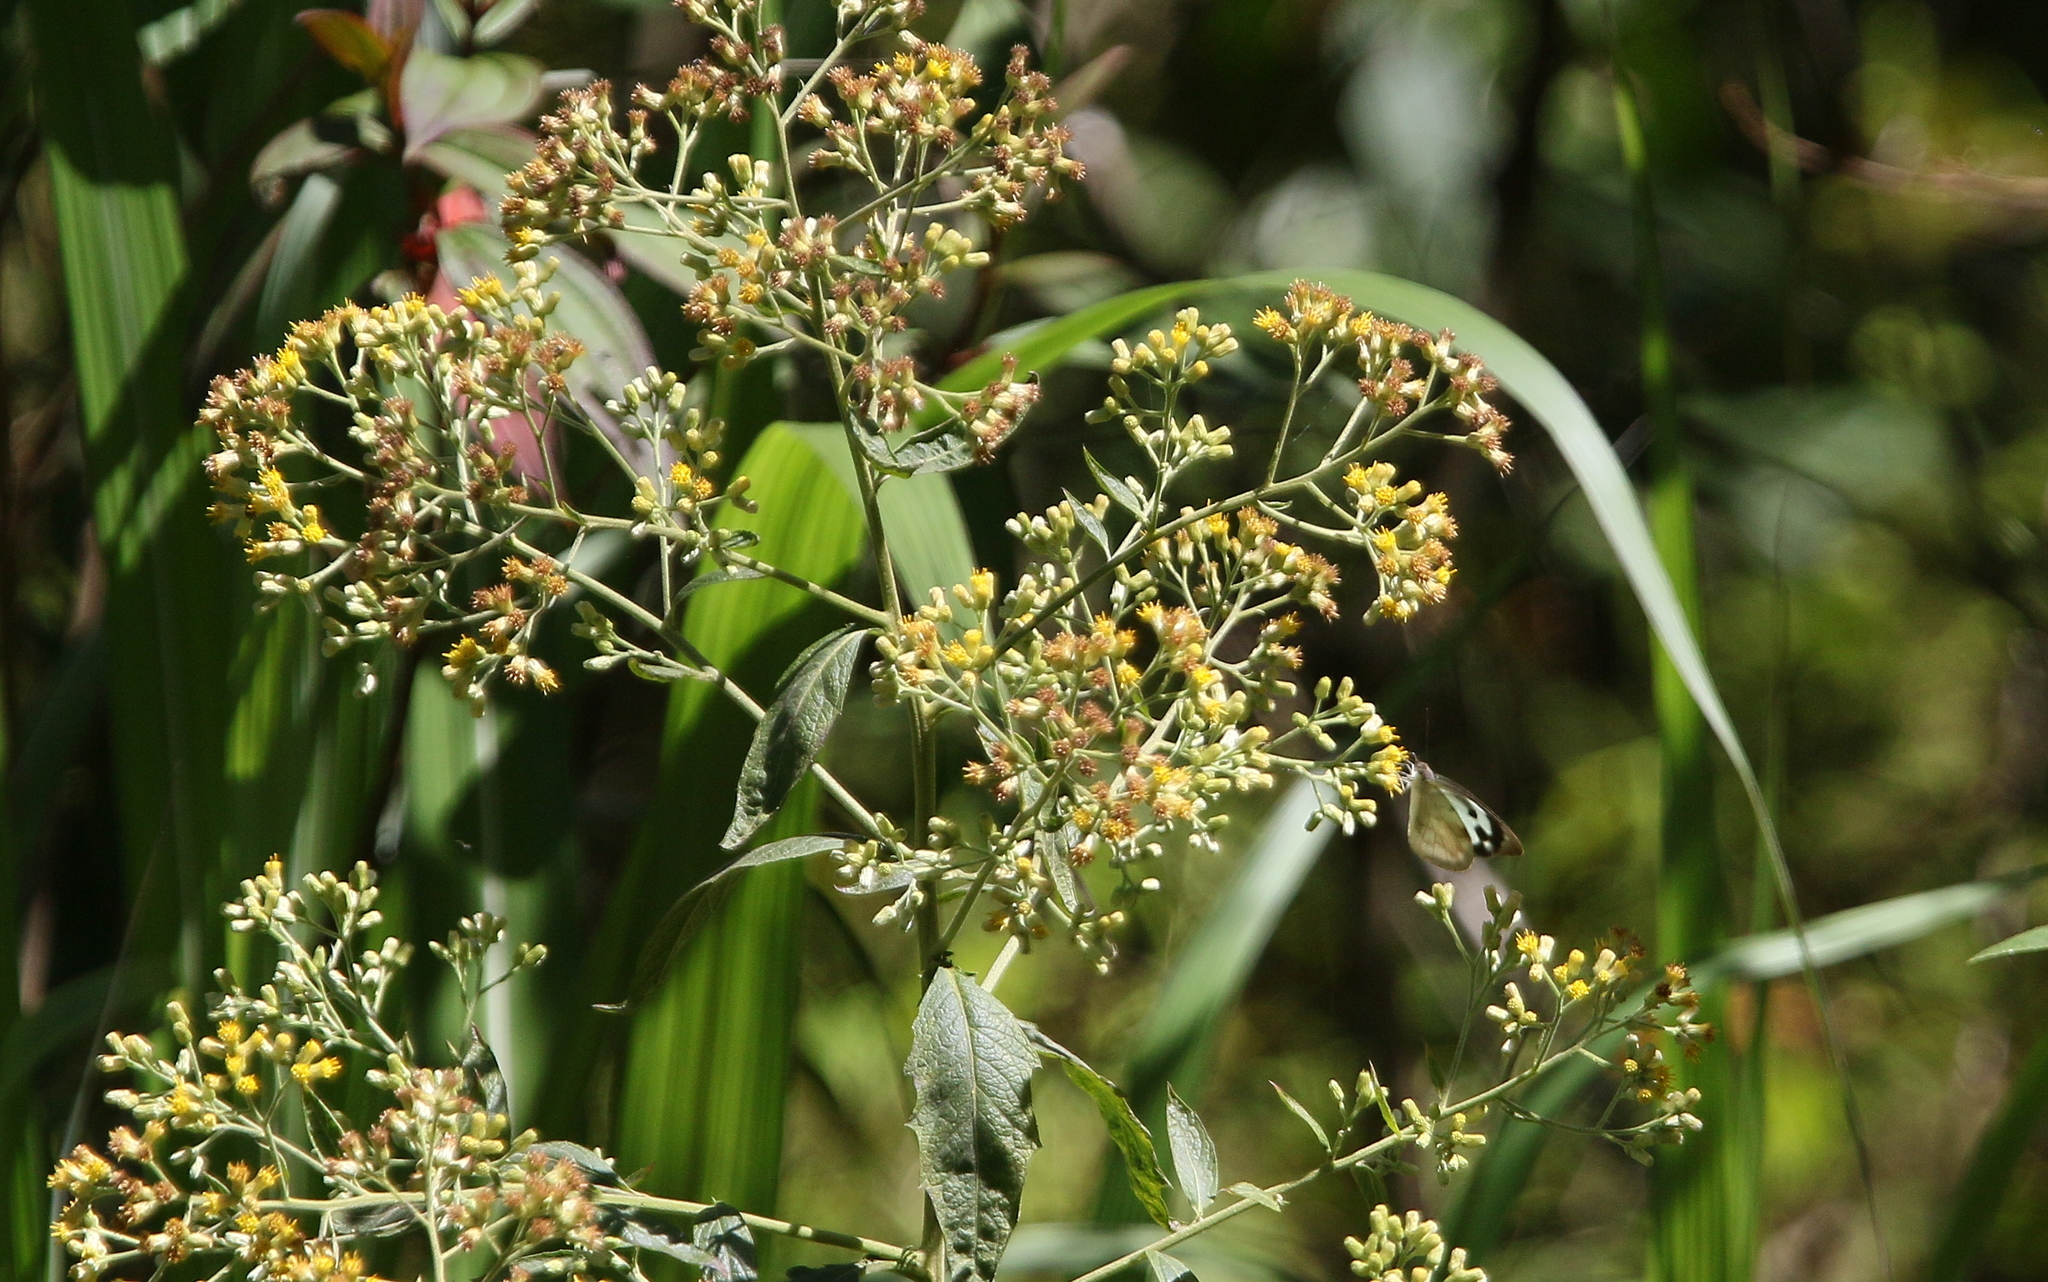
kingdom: Animalia
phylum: Arthropoda
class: Insecta
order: Lepidoptera
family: Pieridae
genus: Appias
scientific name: Appias lalage
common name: Spot puffin
